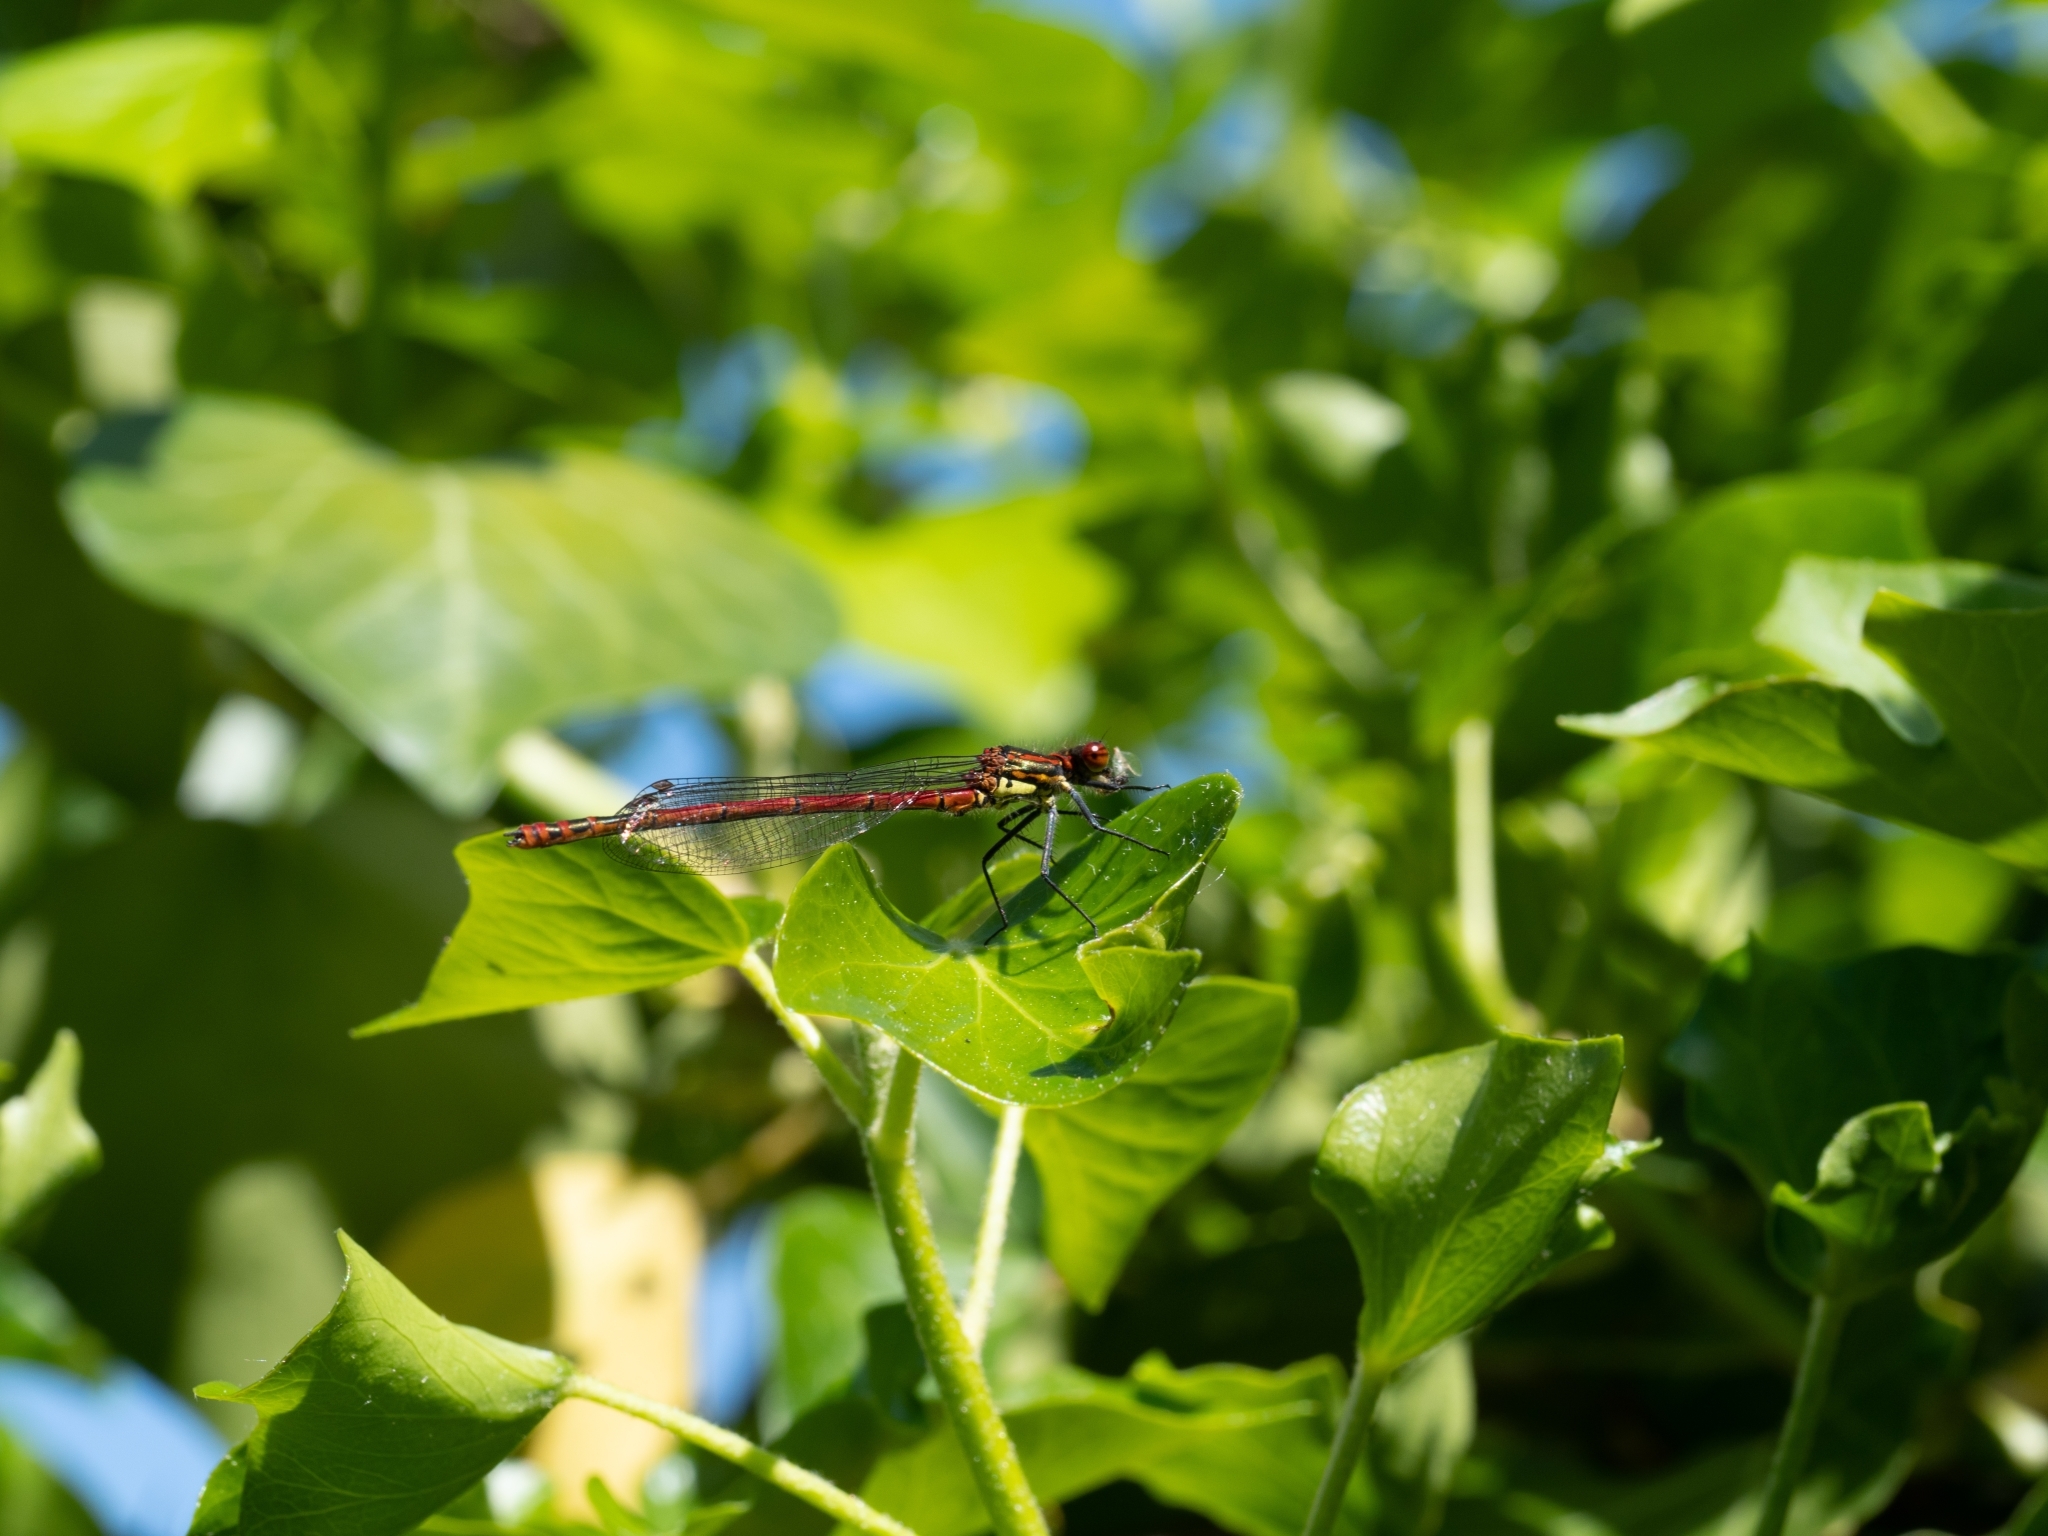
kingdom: Animalia
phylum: Arthropoda
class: Insecta
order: Odonata
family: Coenagrionidae
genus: Pyrrhosoma
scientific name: Pyrrhosoma nymphula
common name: Large red damsel
